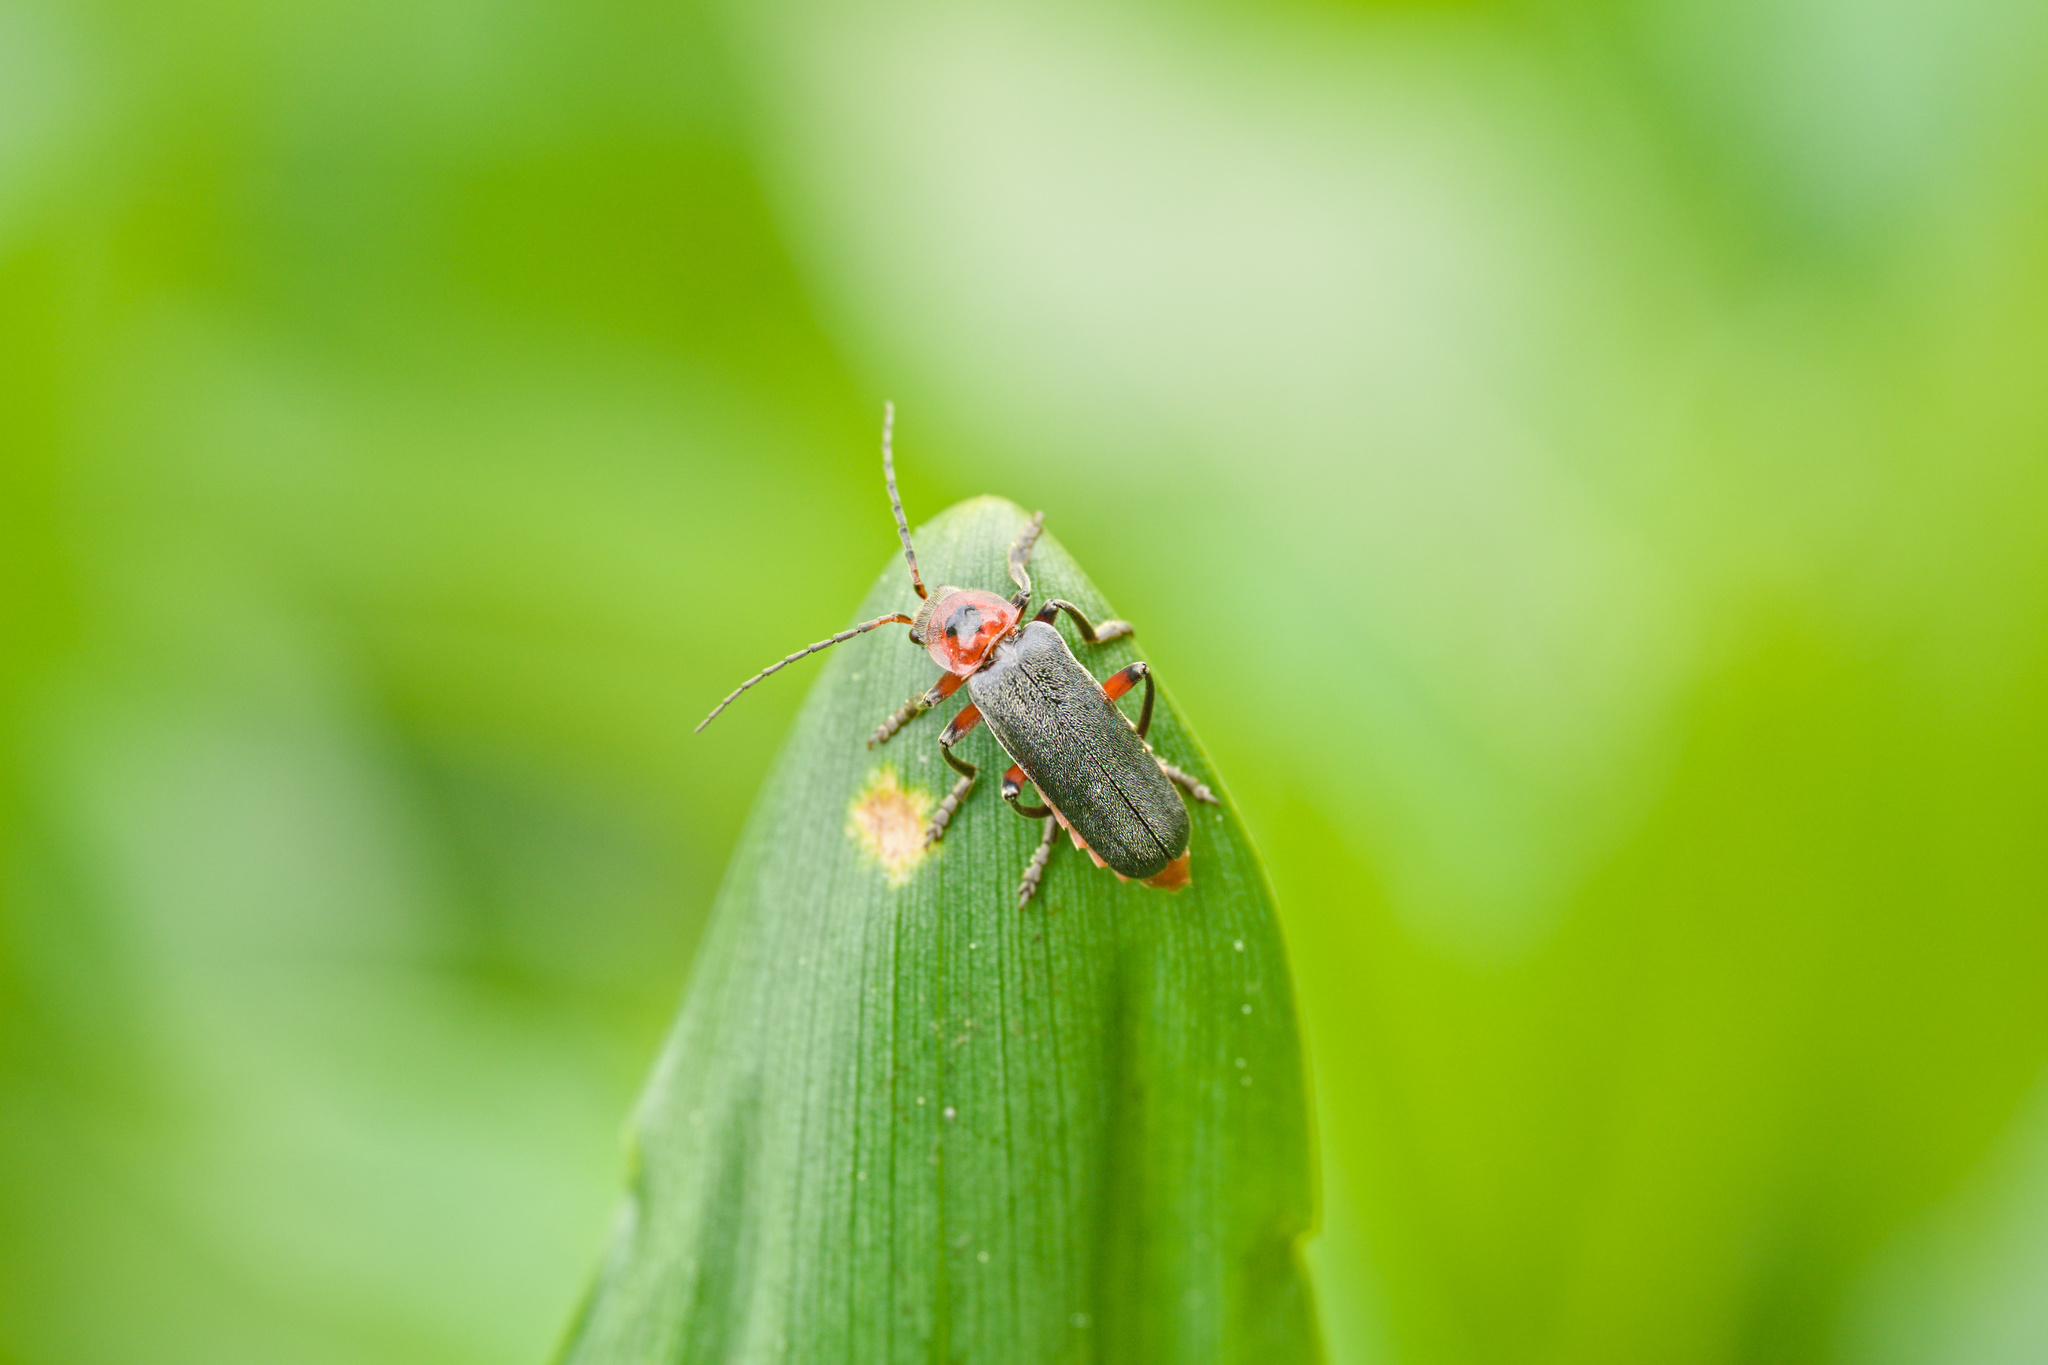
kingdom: Animalia
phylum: Arthropoda
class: Insecta
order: Coleoptera
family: Cantharidae
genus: Cantharis
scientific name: Cantharis rustica
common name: Soldier beetle
